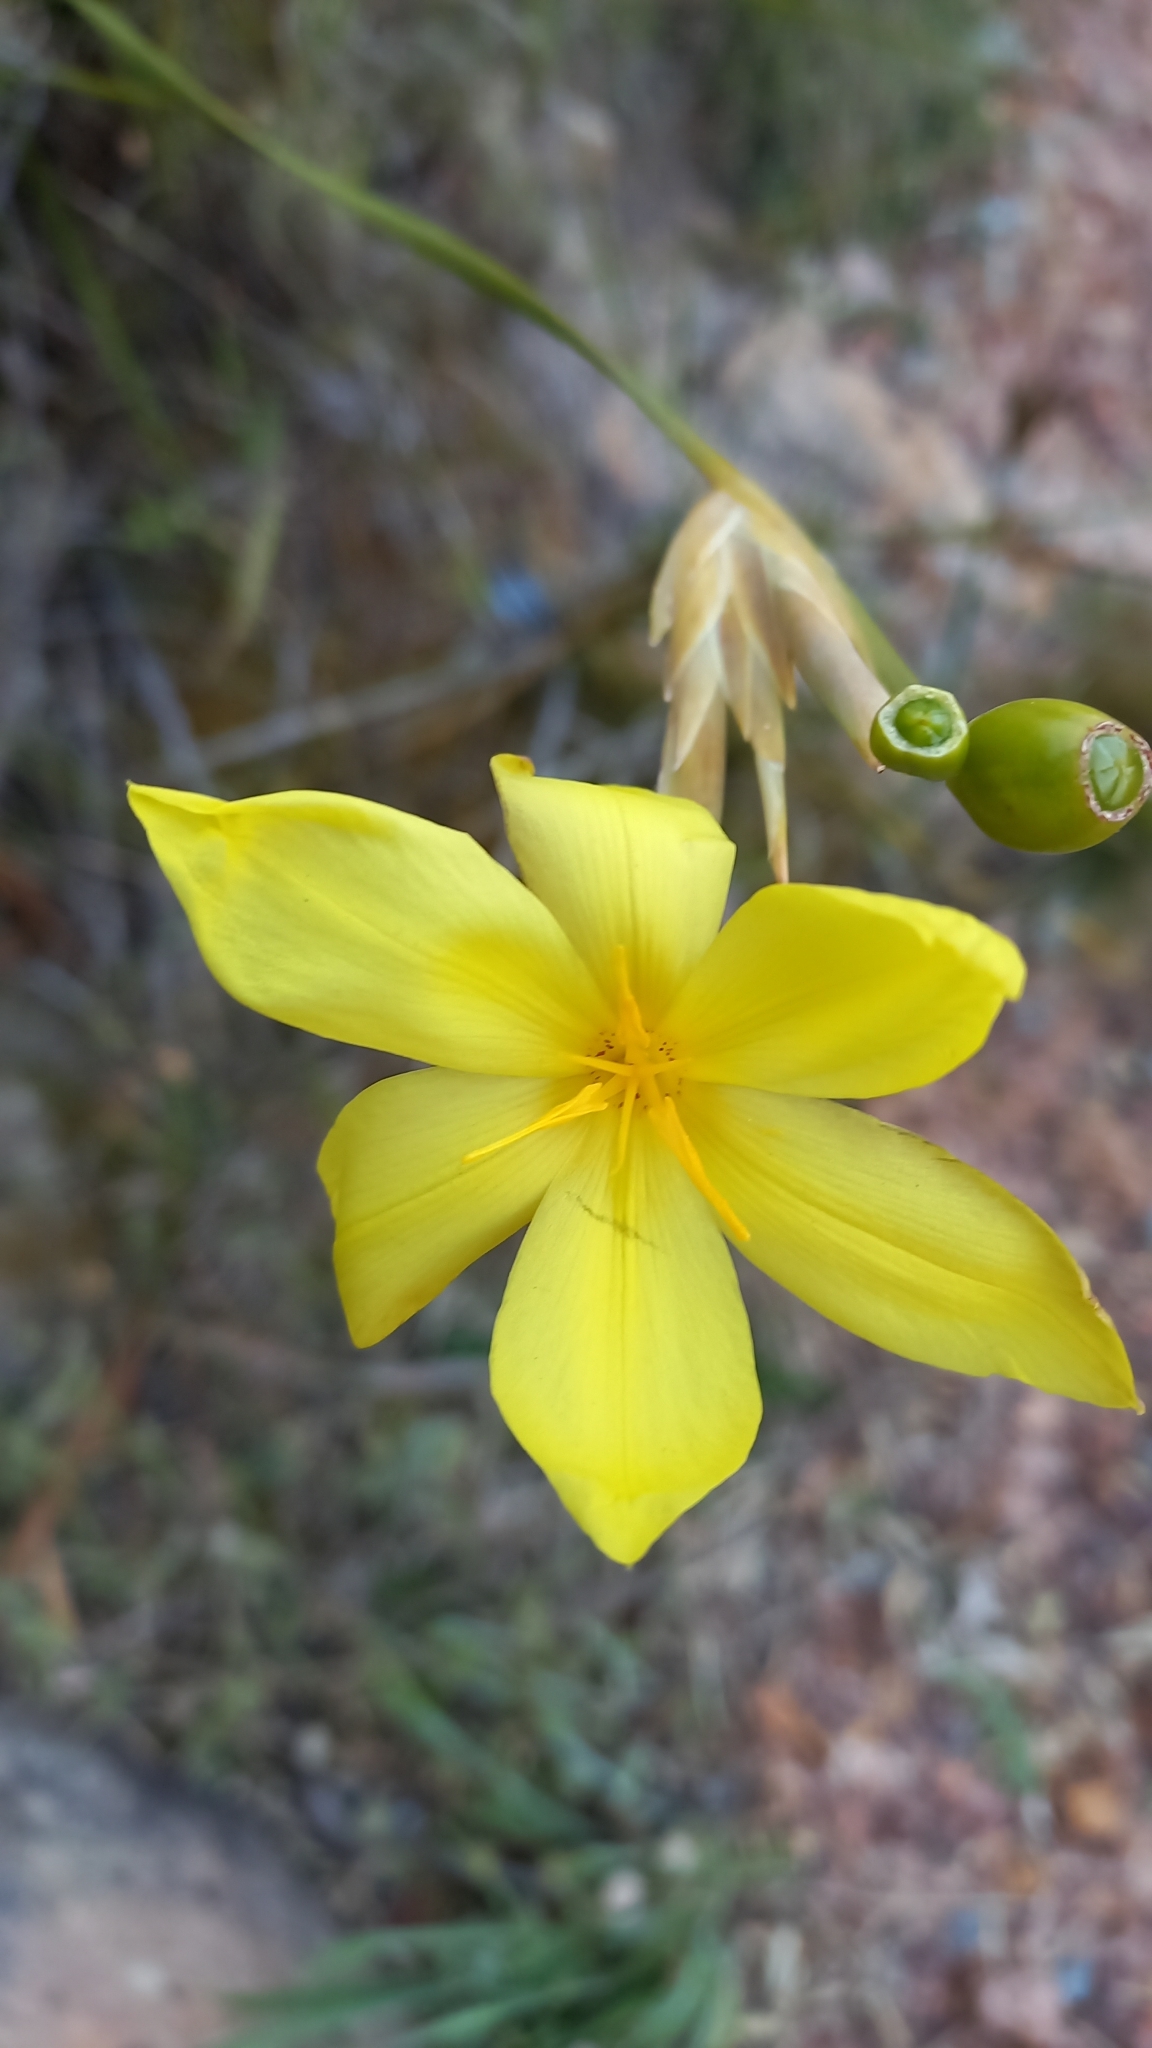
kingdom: Plantae
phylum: Tracheophyta
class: Liliopsida
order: Asparagales
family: Iridaceae
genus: Bobartia
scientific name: Bobartia gladiata
